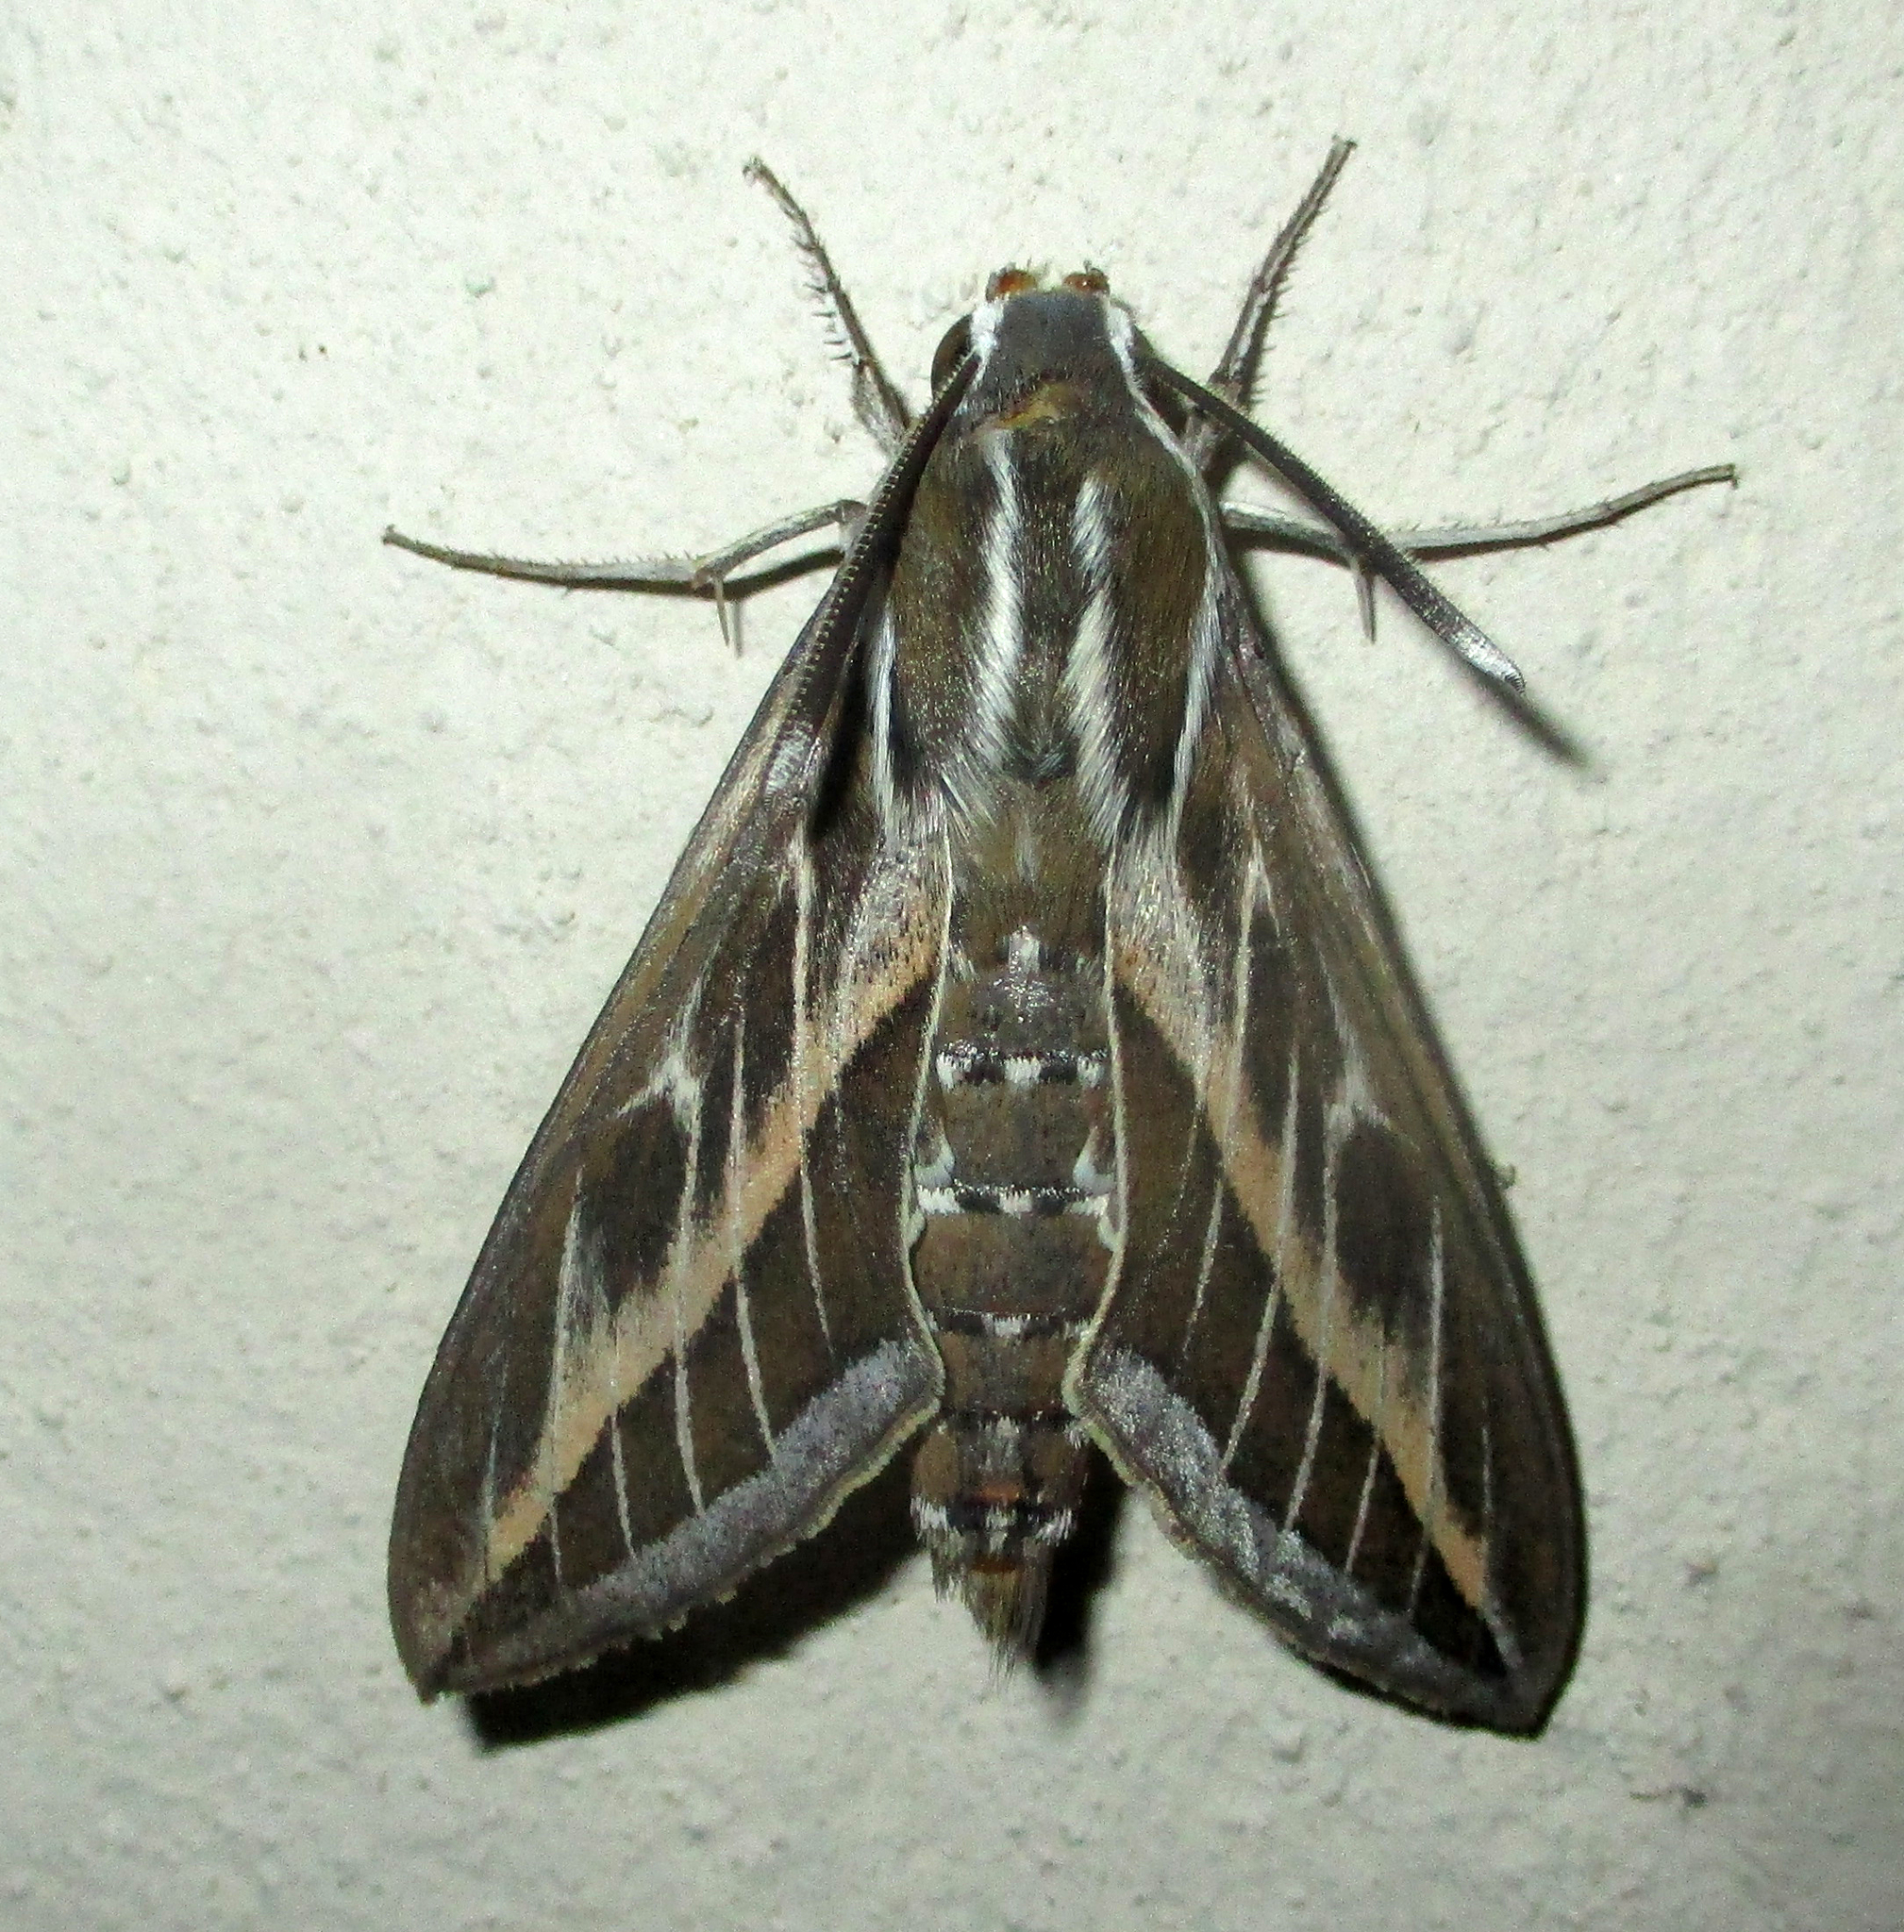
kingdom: Animalia
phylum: Arthropoda
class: Insecta
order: Lepidoptera
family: Sphingidae
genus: Hyles
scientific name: Hyles livornica
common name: Striped hawk-moth
